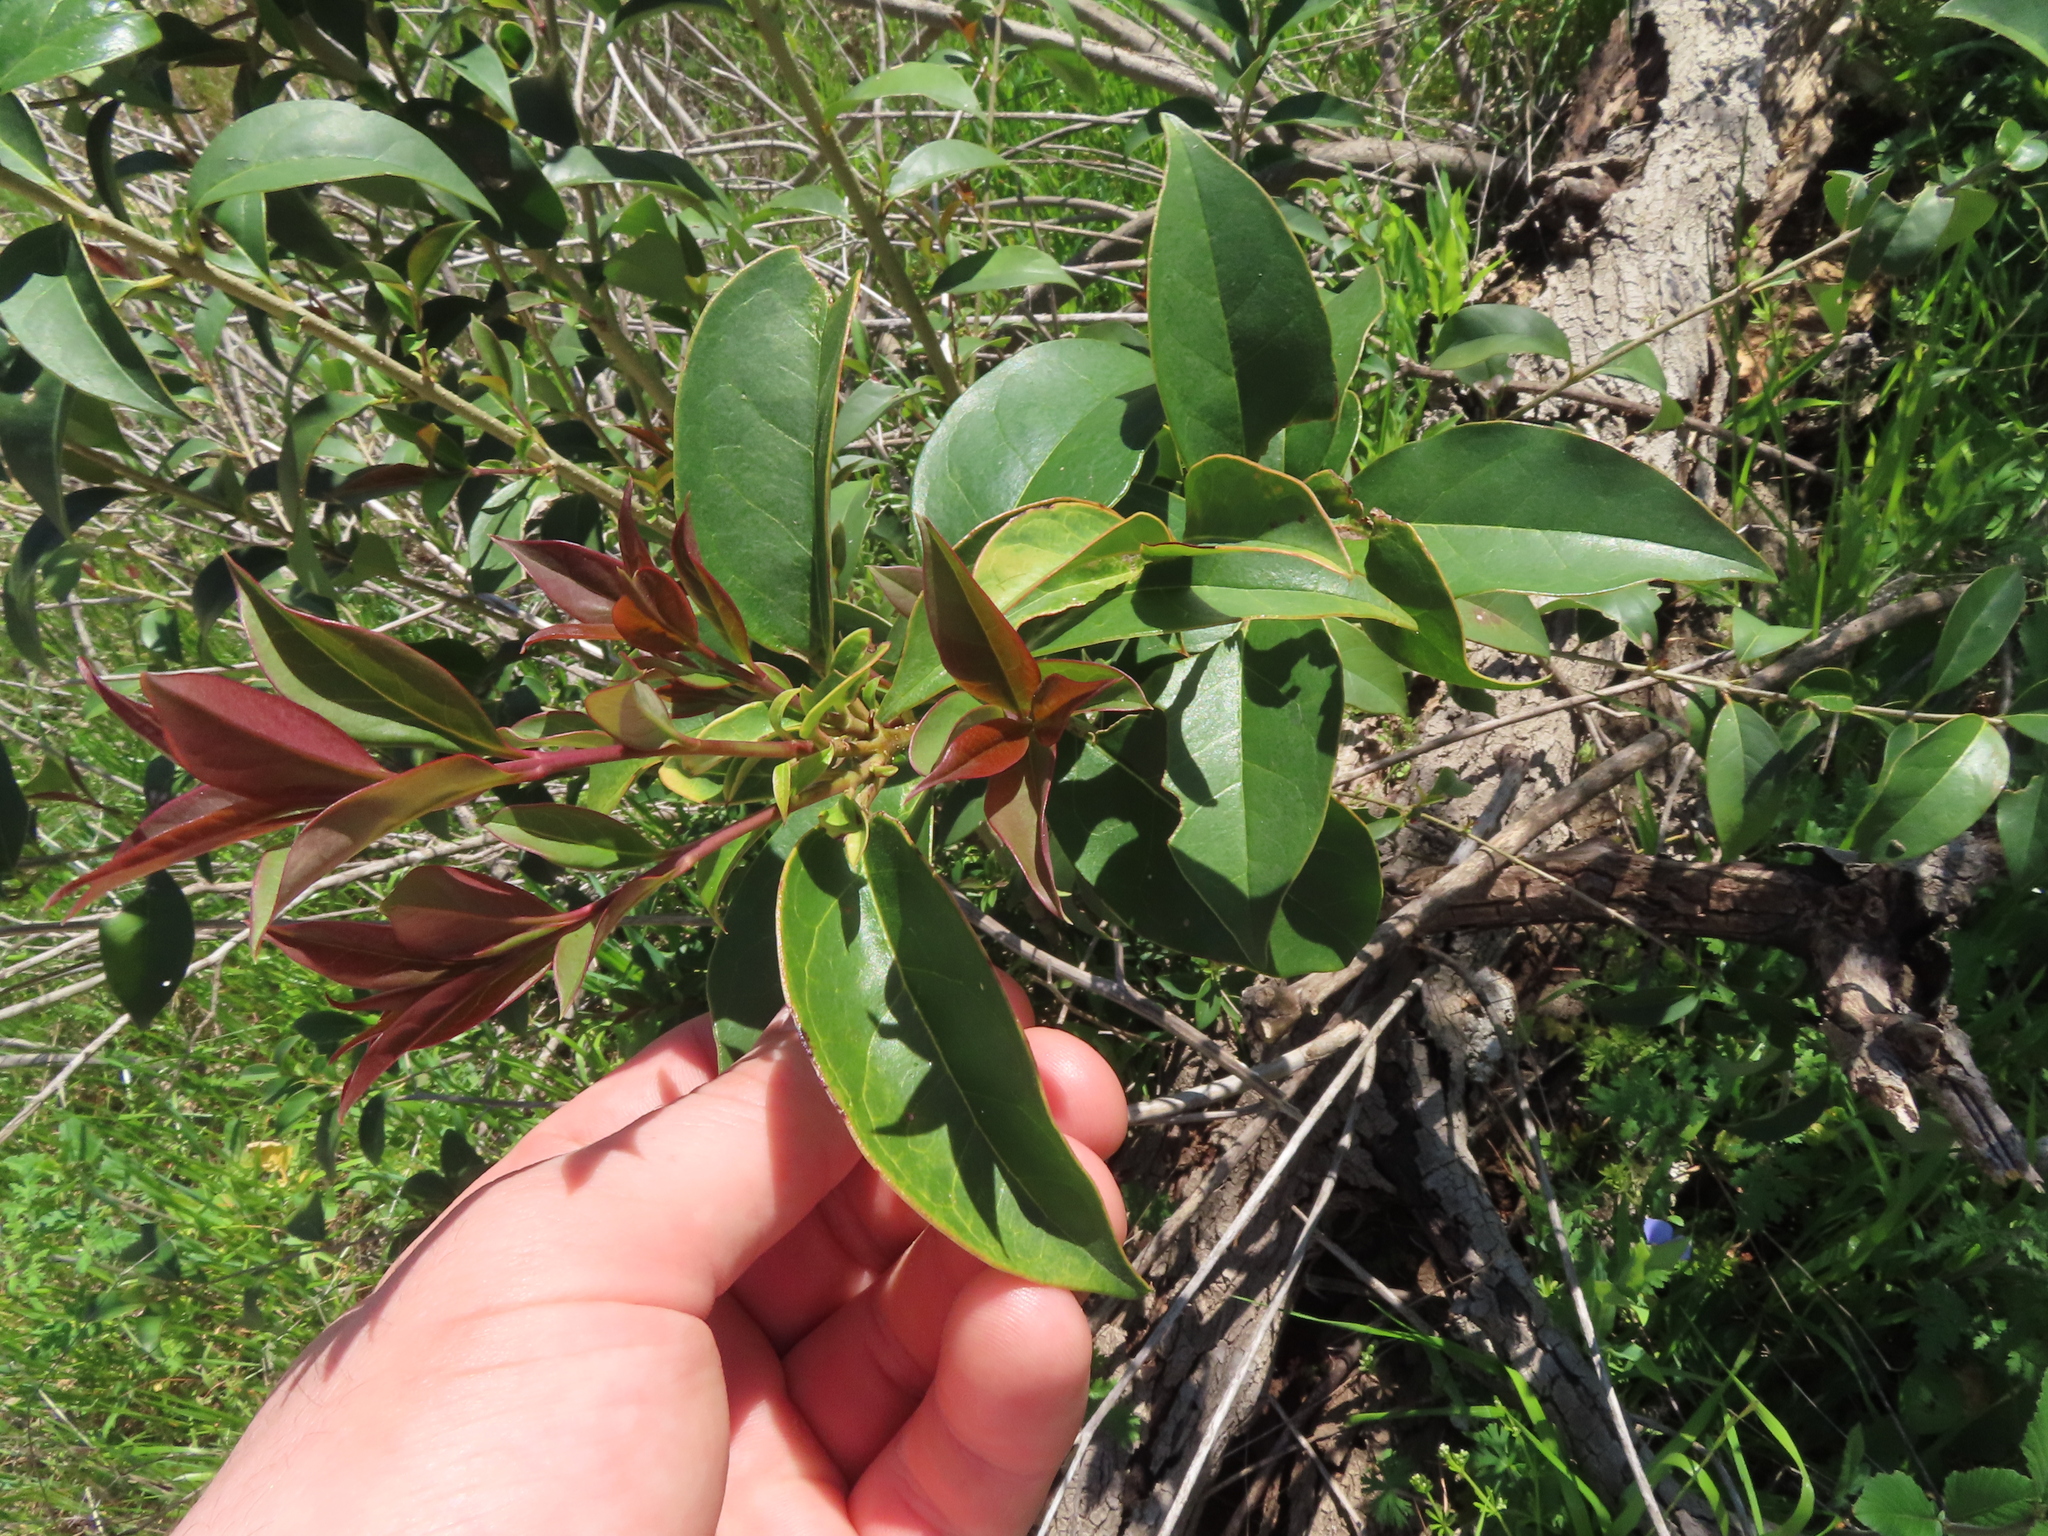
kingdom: Plantae
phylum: Tracheophyta
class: Magnoliopsida
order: Lamiales
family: Oleaceae
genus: Ligustrum
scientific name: Ligustrum lucidum
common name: Glossy privet
